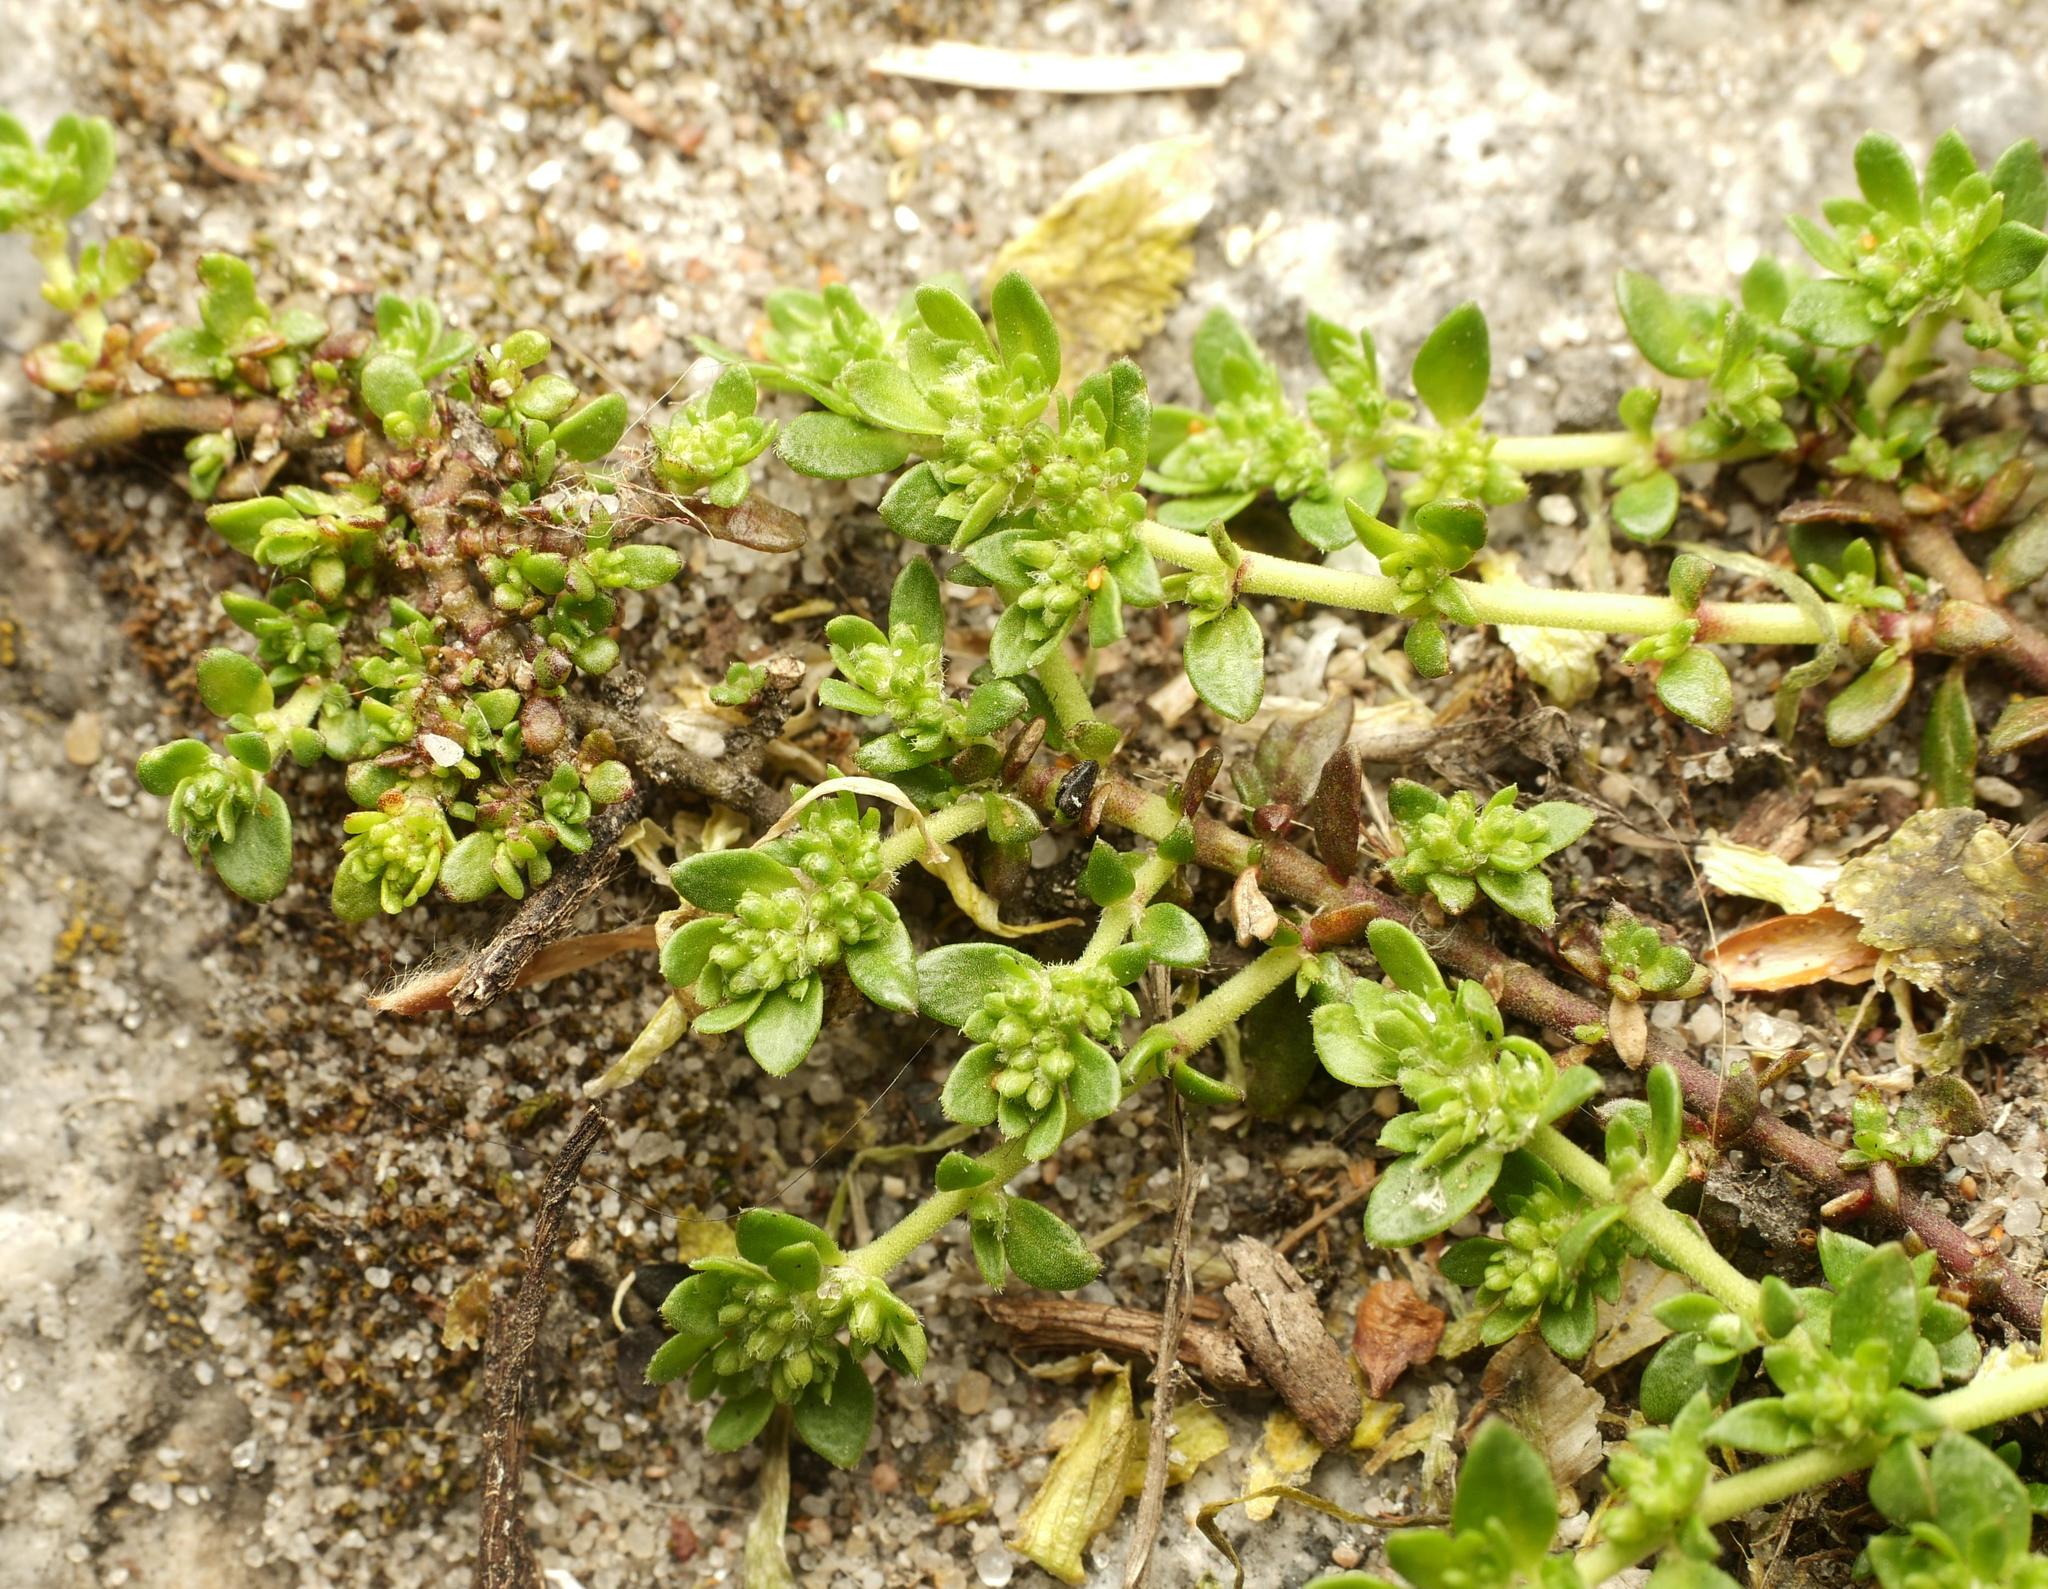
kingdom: Plantae
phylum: Tracheophyta
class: Magnoliopsida
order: Caryophyllales
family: Caryophyllaceae
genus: Herniaria
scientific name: Herniaria glabra
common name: Smooth rupturewort
